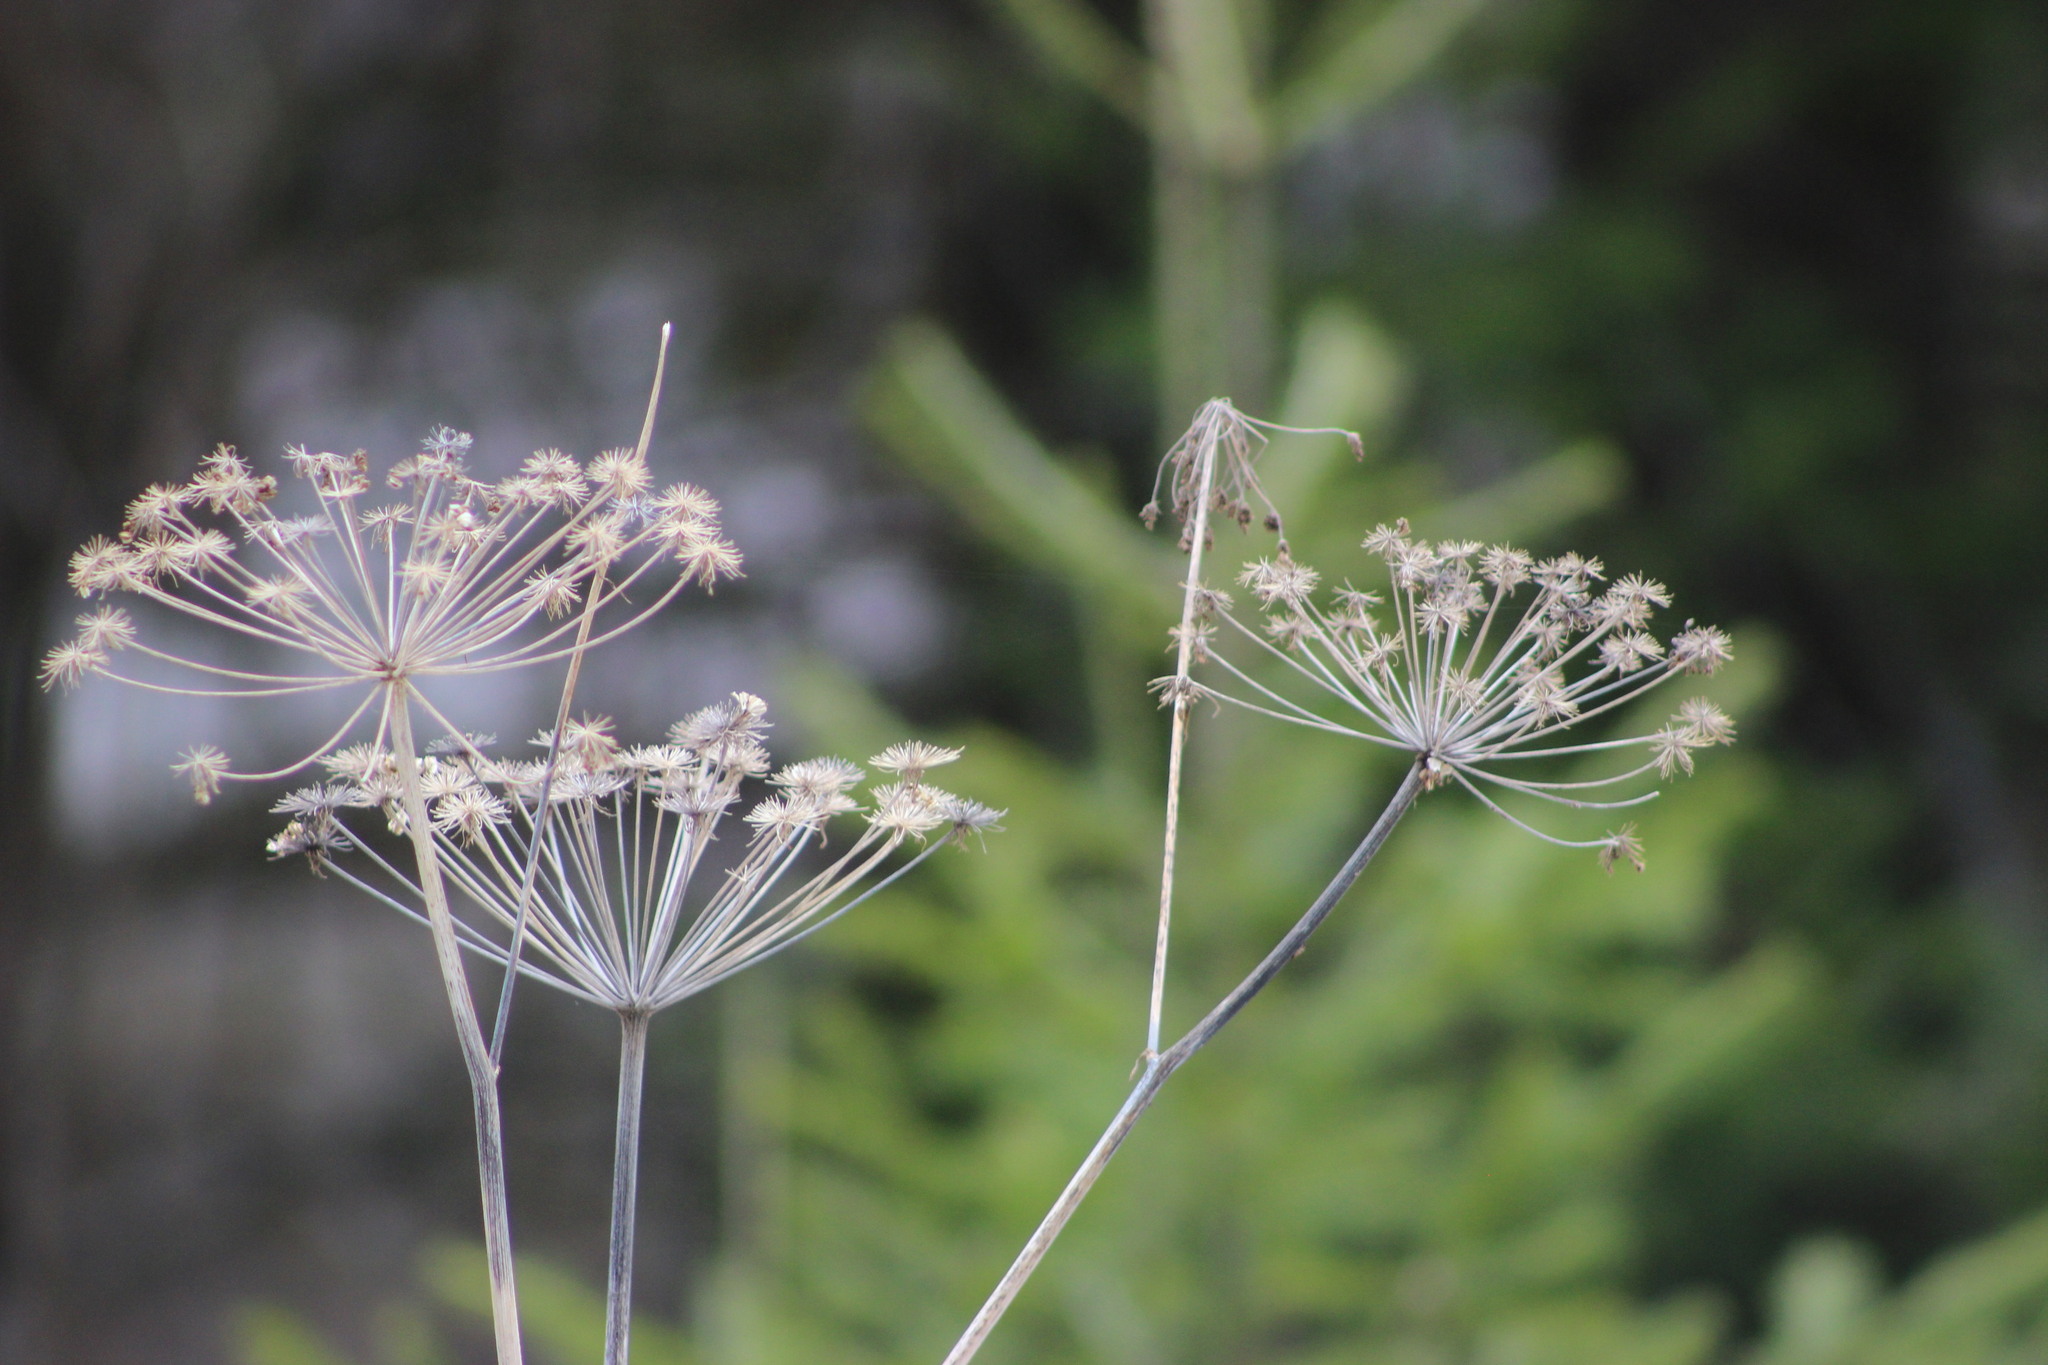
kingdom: Plantae
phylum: Tracheophyta
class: Magnoliopsida
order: Apiales
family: Apiaceae
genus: Angelica
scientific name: Angelica sylvestris
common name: Wild angelica
